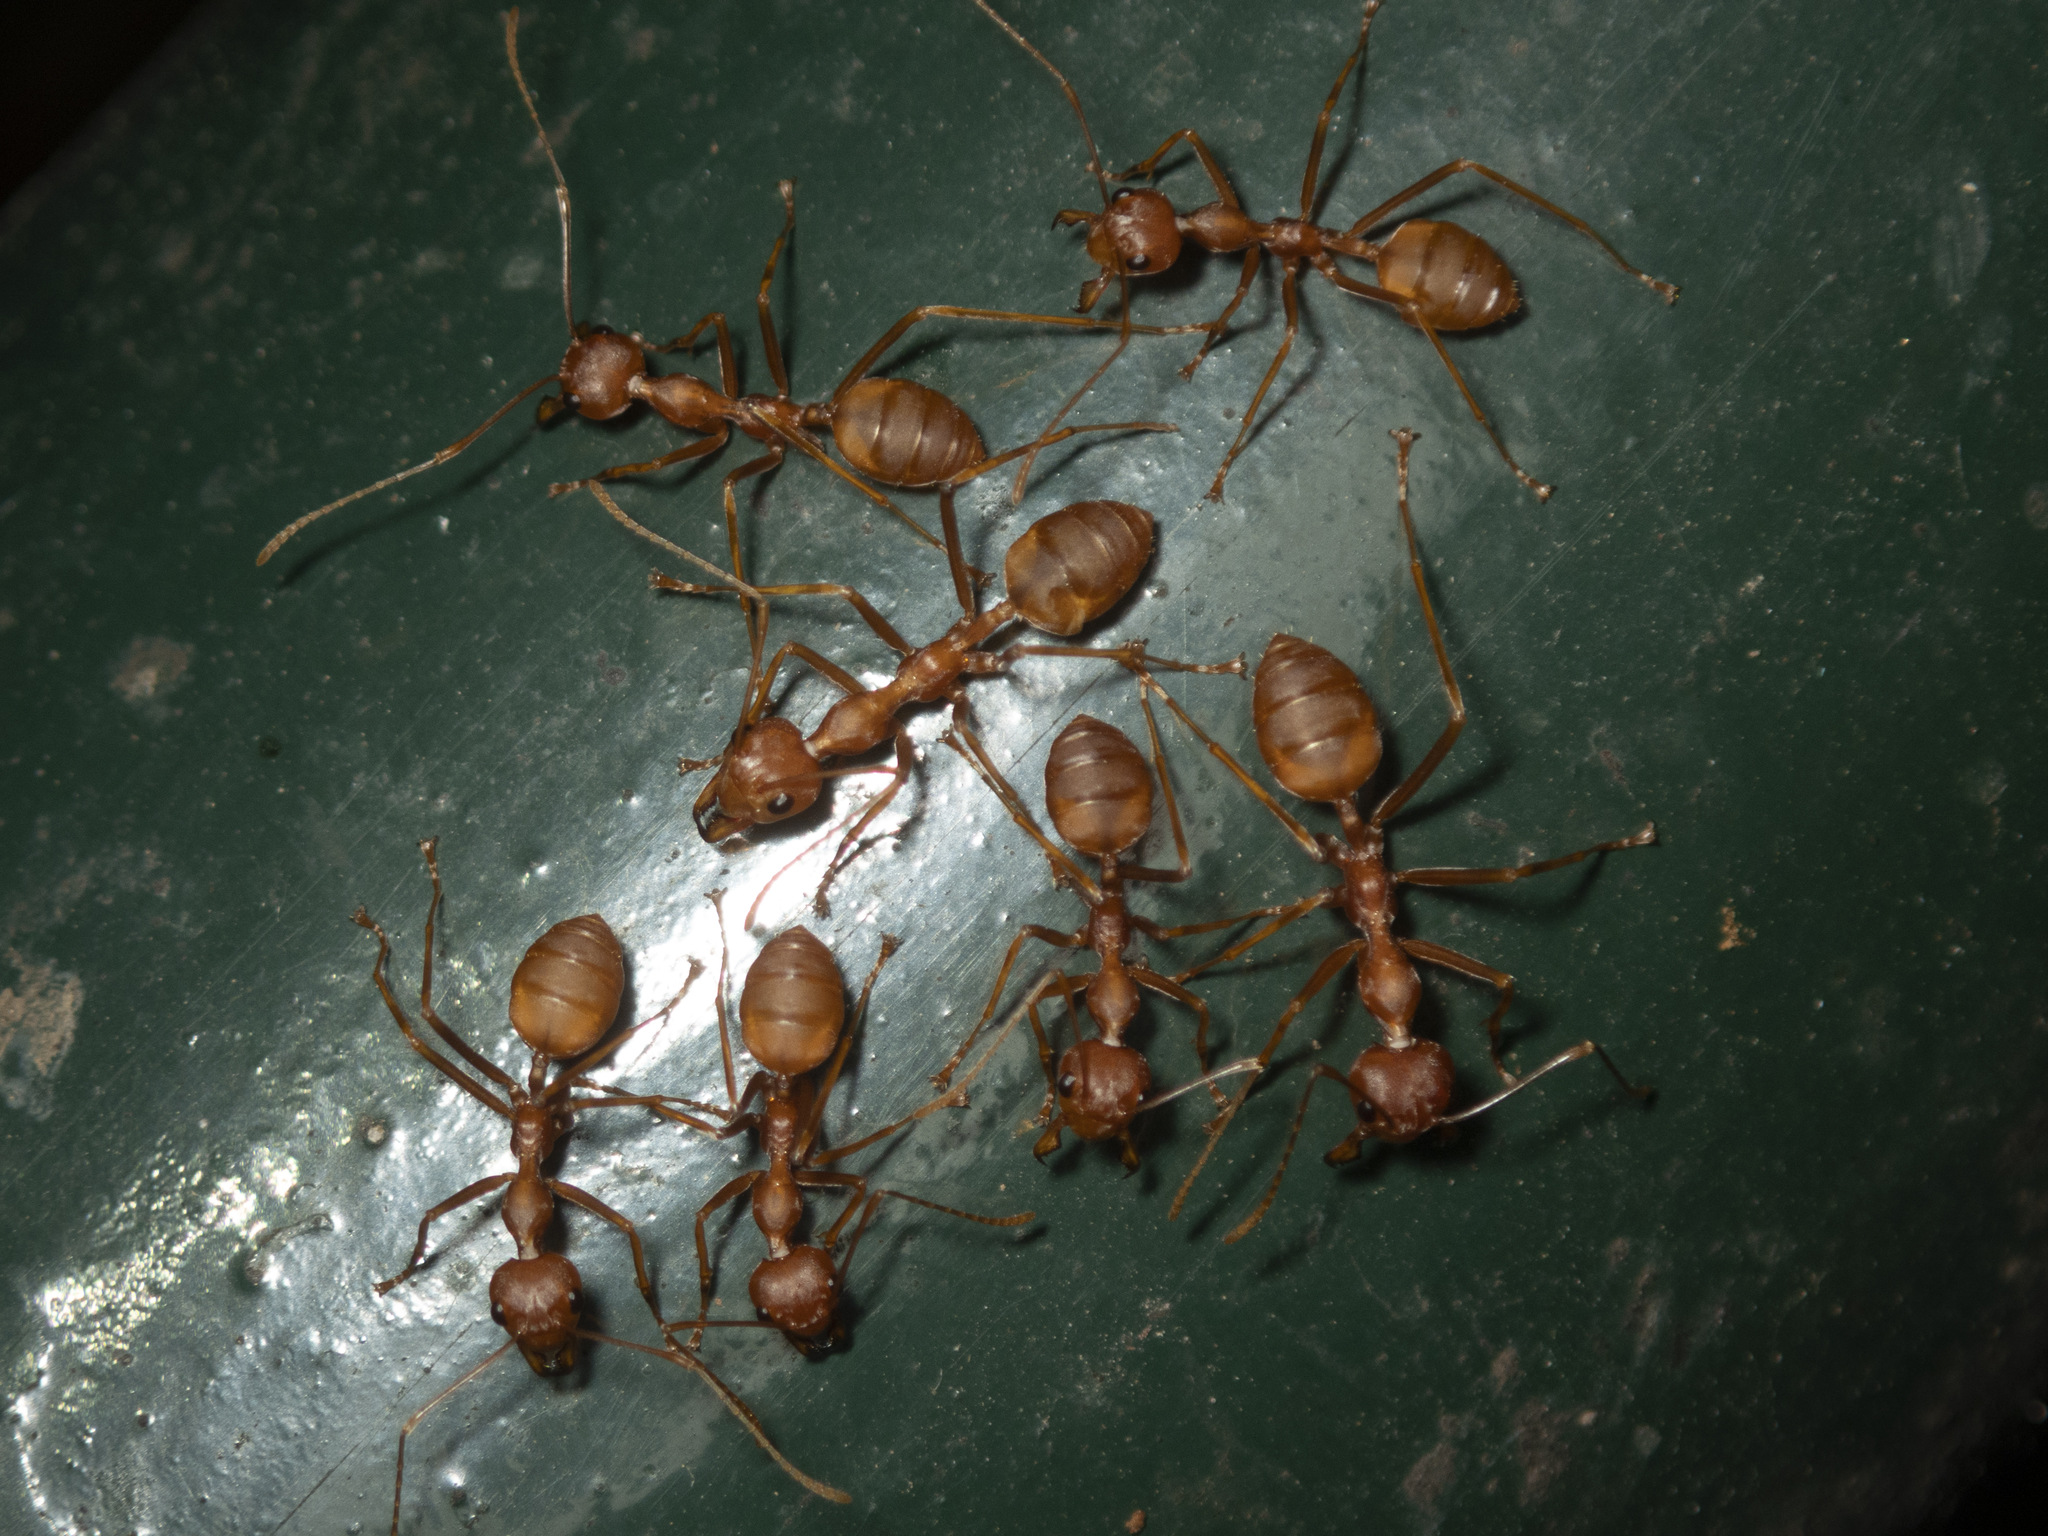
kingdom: Animalia
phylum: Arthropoda
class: Insecta
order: Hymenoptera
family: Formicidae
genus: Oecophylla
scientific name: Oecophylla smaragdina
